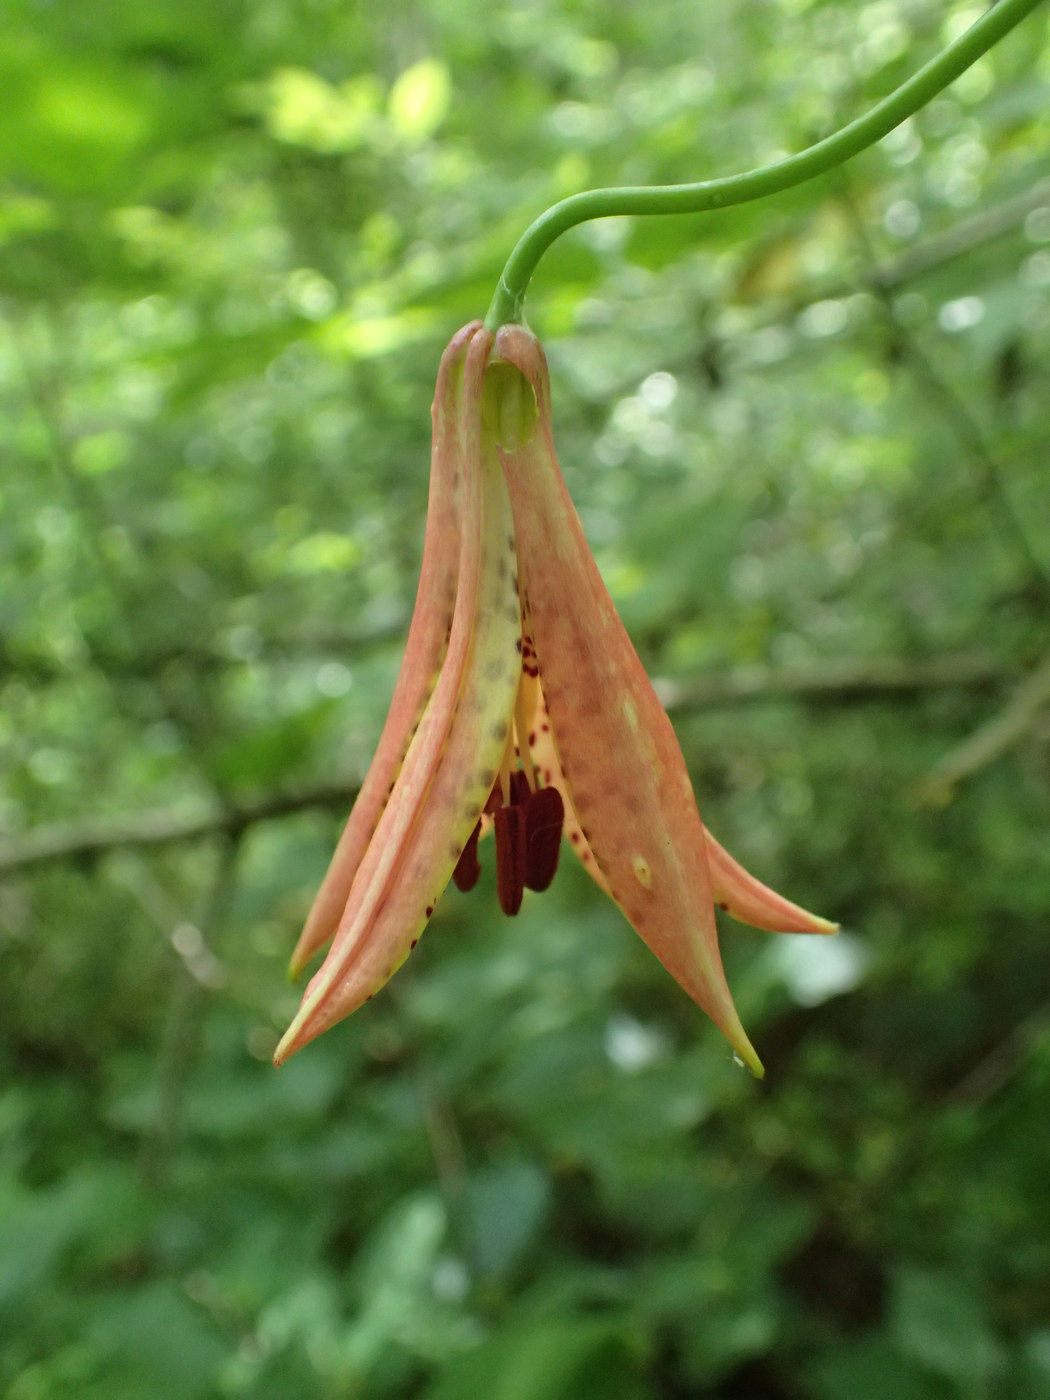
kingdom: Plantae
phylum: Tracheophyta
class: Liliopsida
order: Liliales
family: Liliaceae
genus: Lilium
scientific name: Lilium canadense
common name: Canada lily
